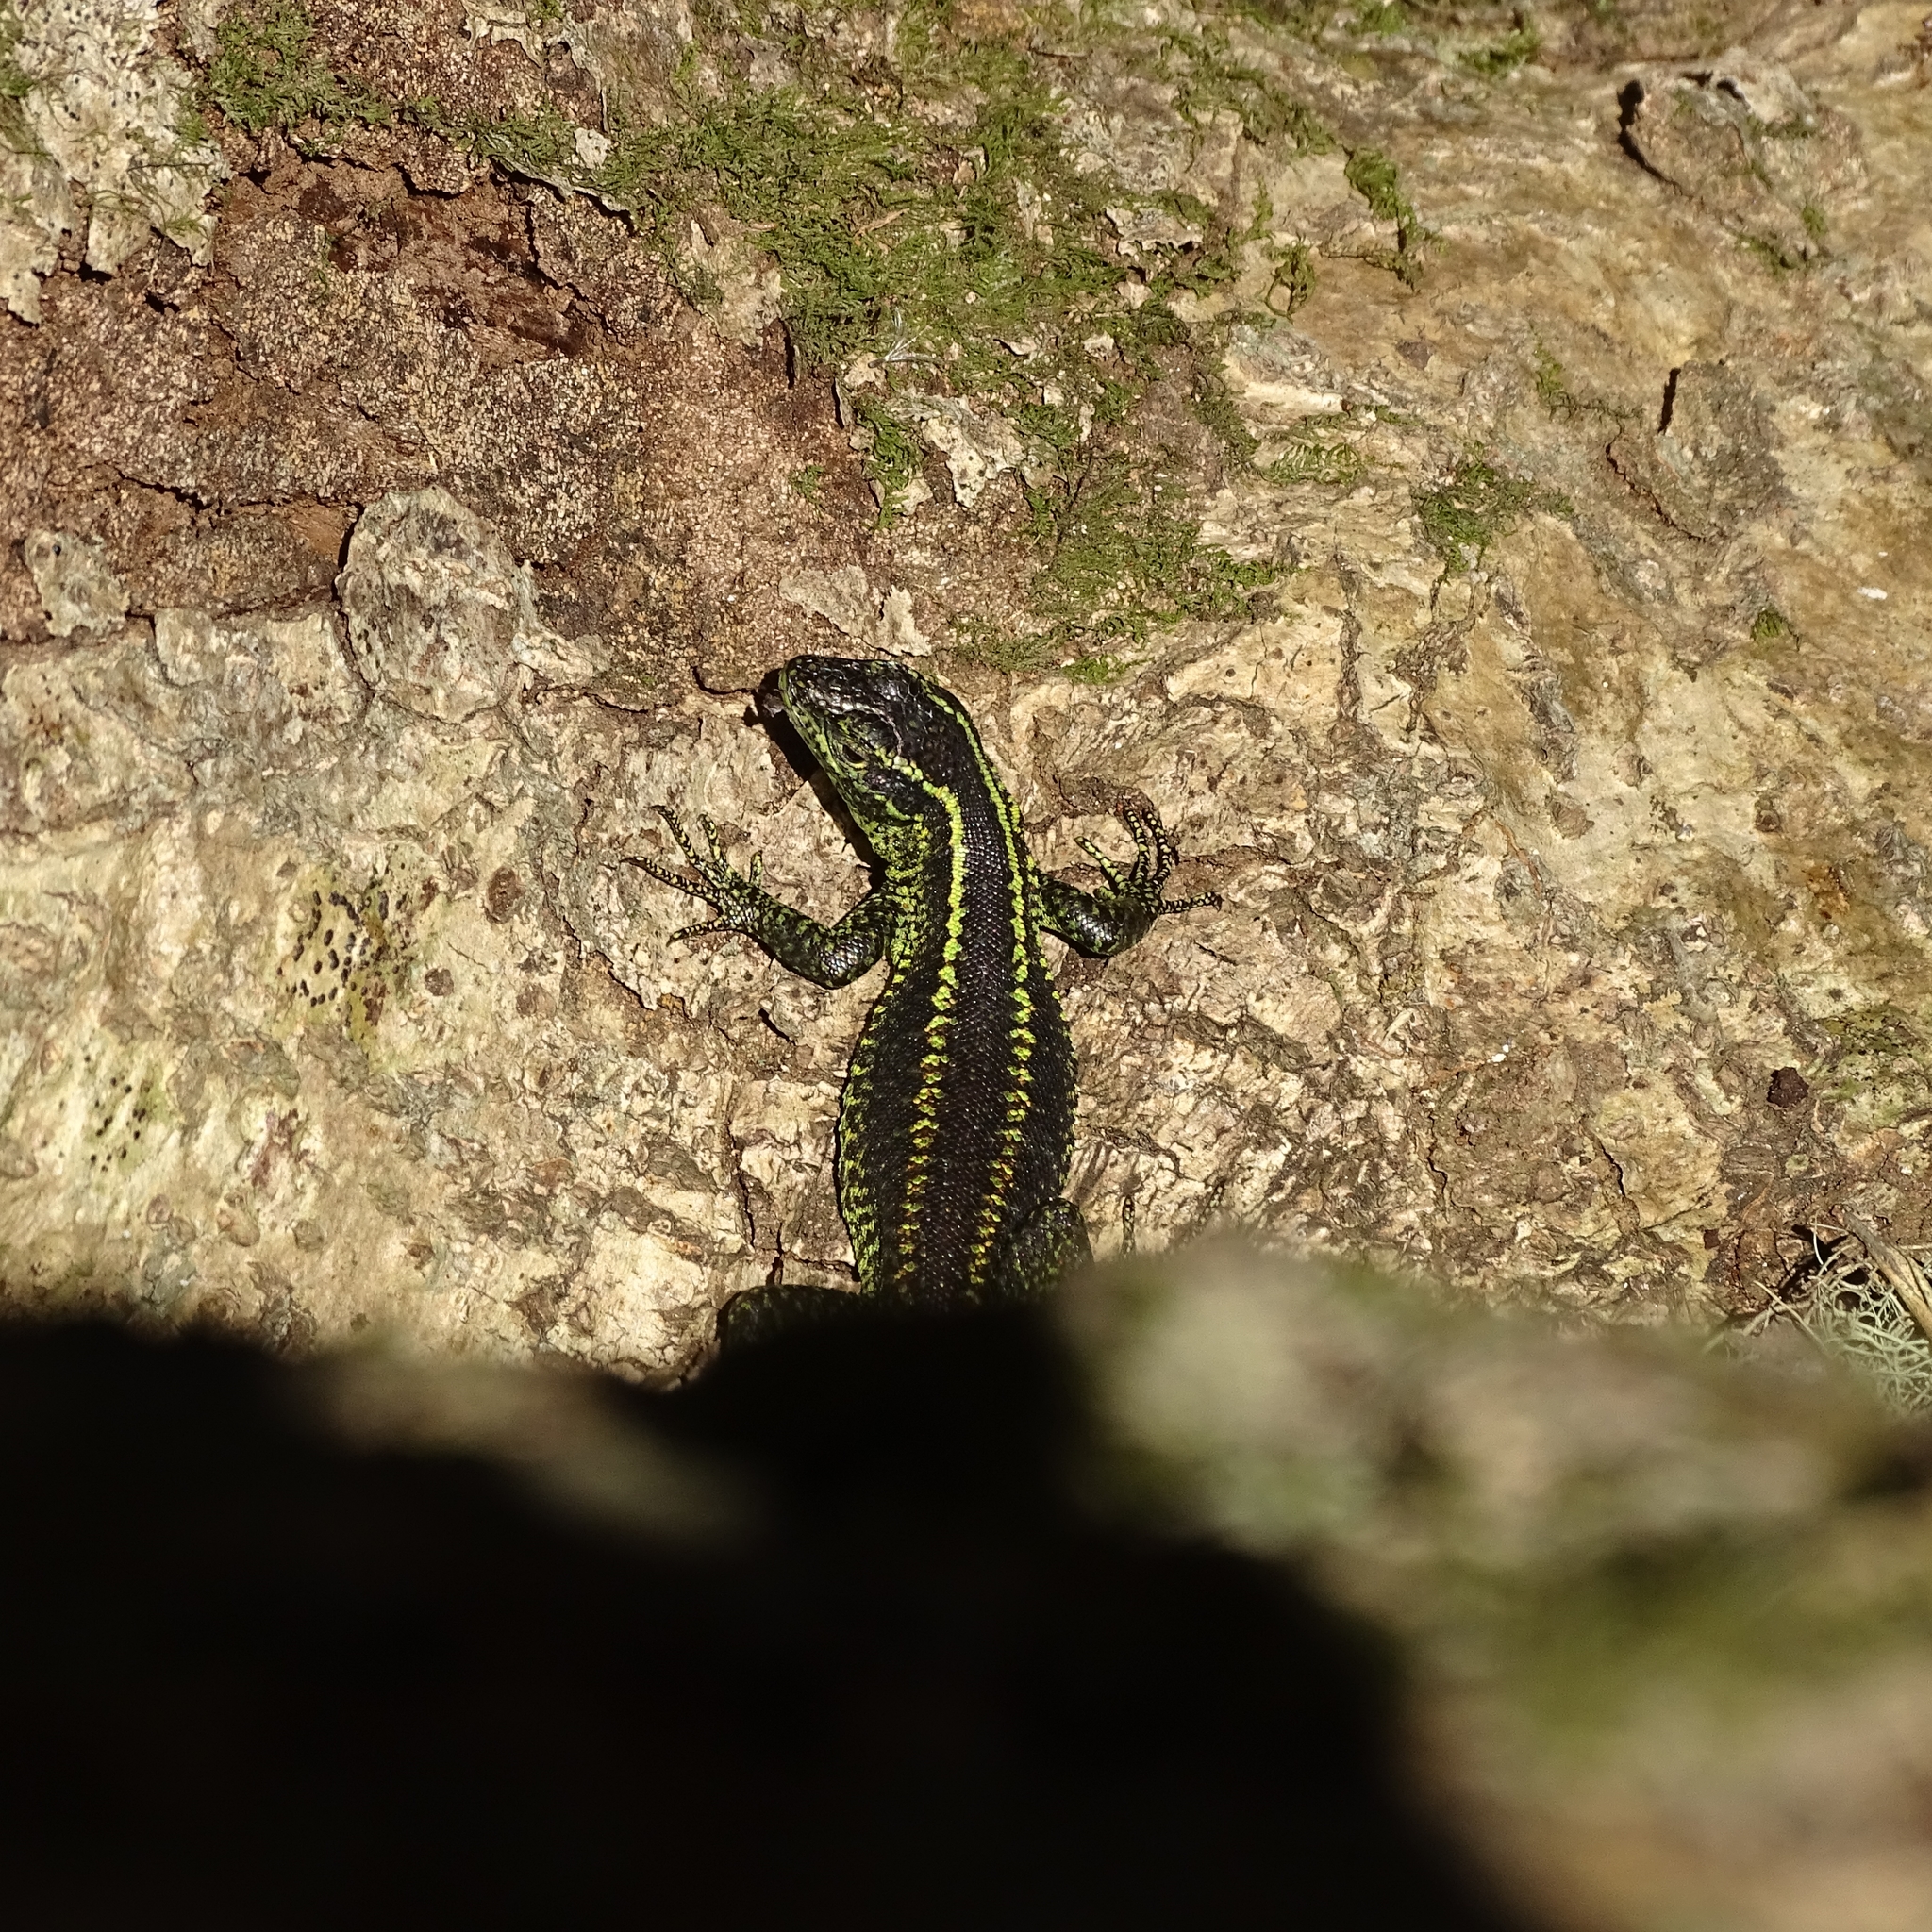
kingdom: Animalia
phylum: Chordata
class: Squamata
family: Liolaemidae
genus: Liolaemus
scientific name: Liolaemus septentrionalis
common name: Painted tree iguana
